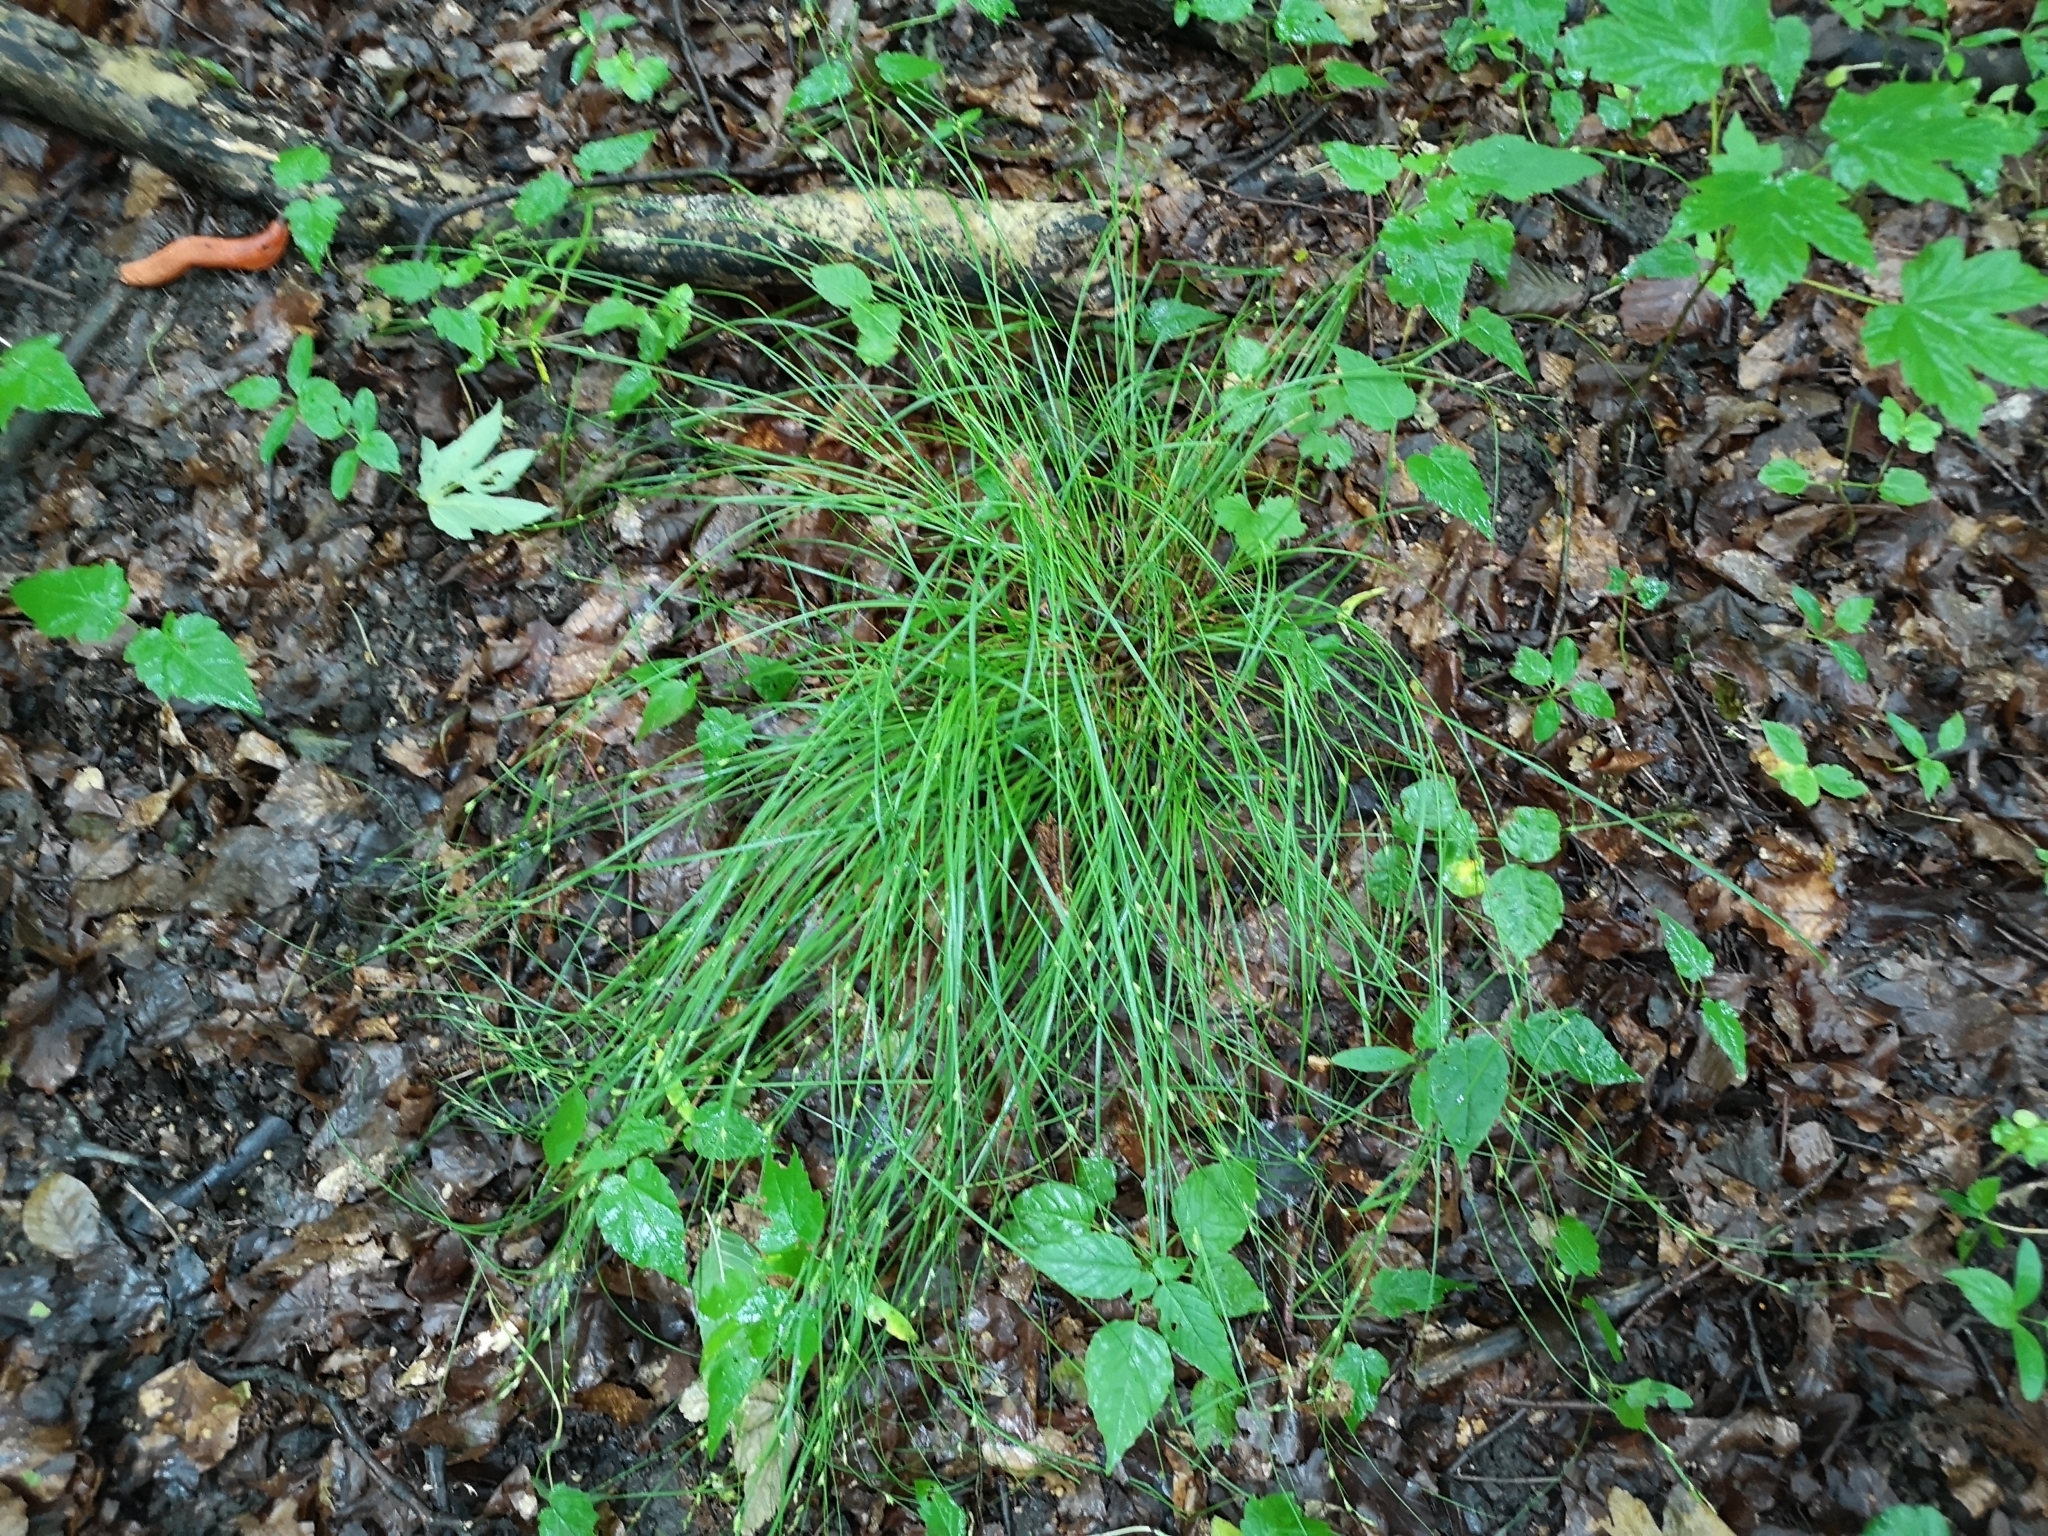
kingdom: Plantae
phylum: Tracheophyta
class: Liliopsida
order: Poales
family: Cyperaceae
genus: Carex
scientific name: Carex remota
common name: Remote sedge
